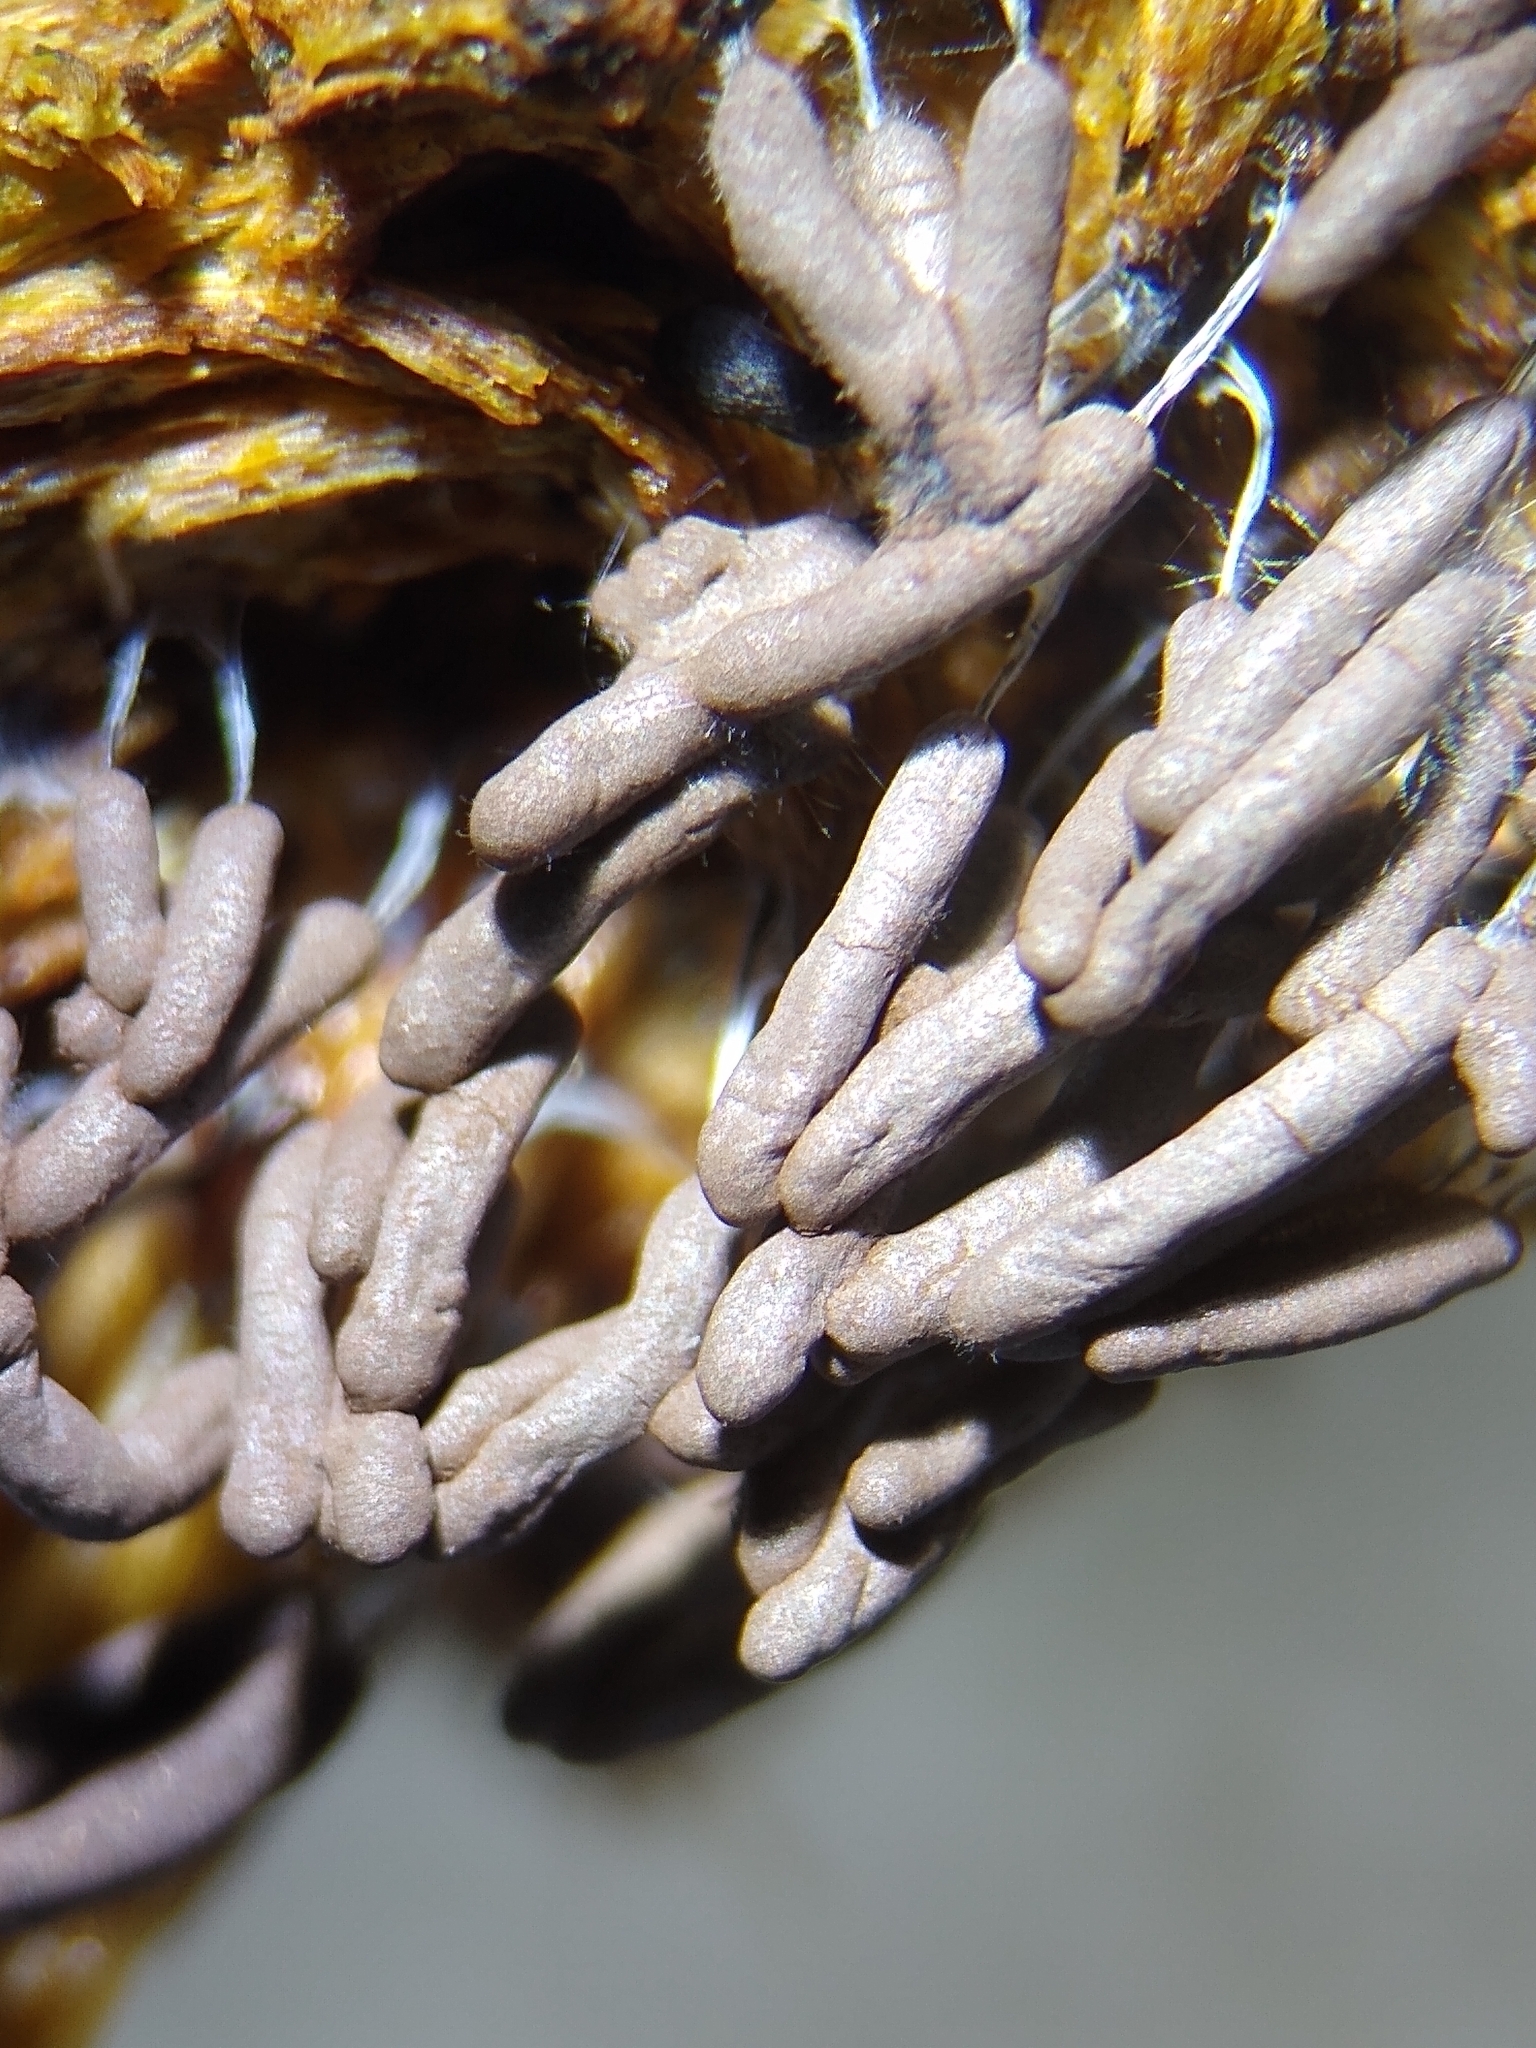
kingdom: Protozoa
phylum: Mycetozoa
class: Myxomycetes
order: Stemonitidales
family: Stemonitidaceae
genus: Stemonitopsis
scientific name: Stemonitopsis typhina
